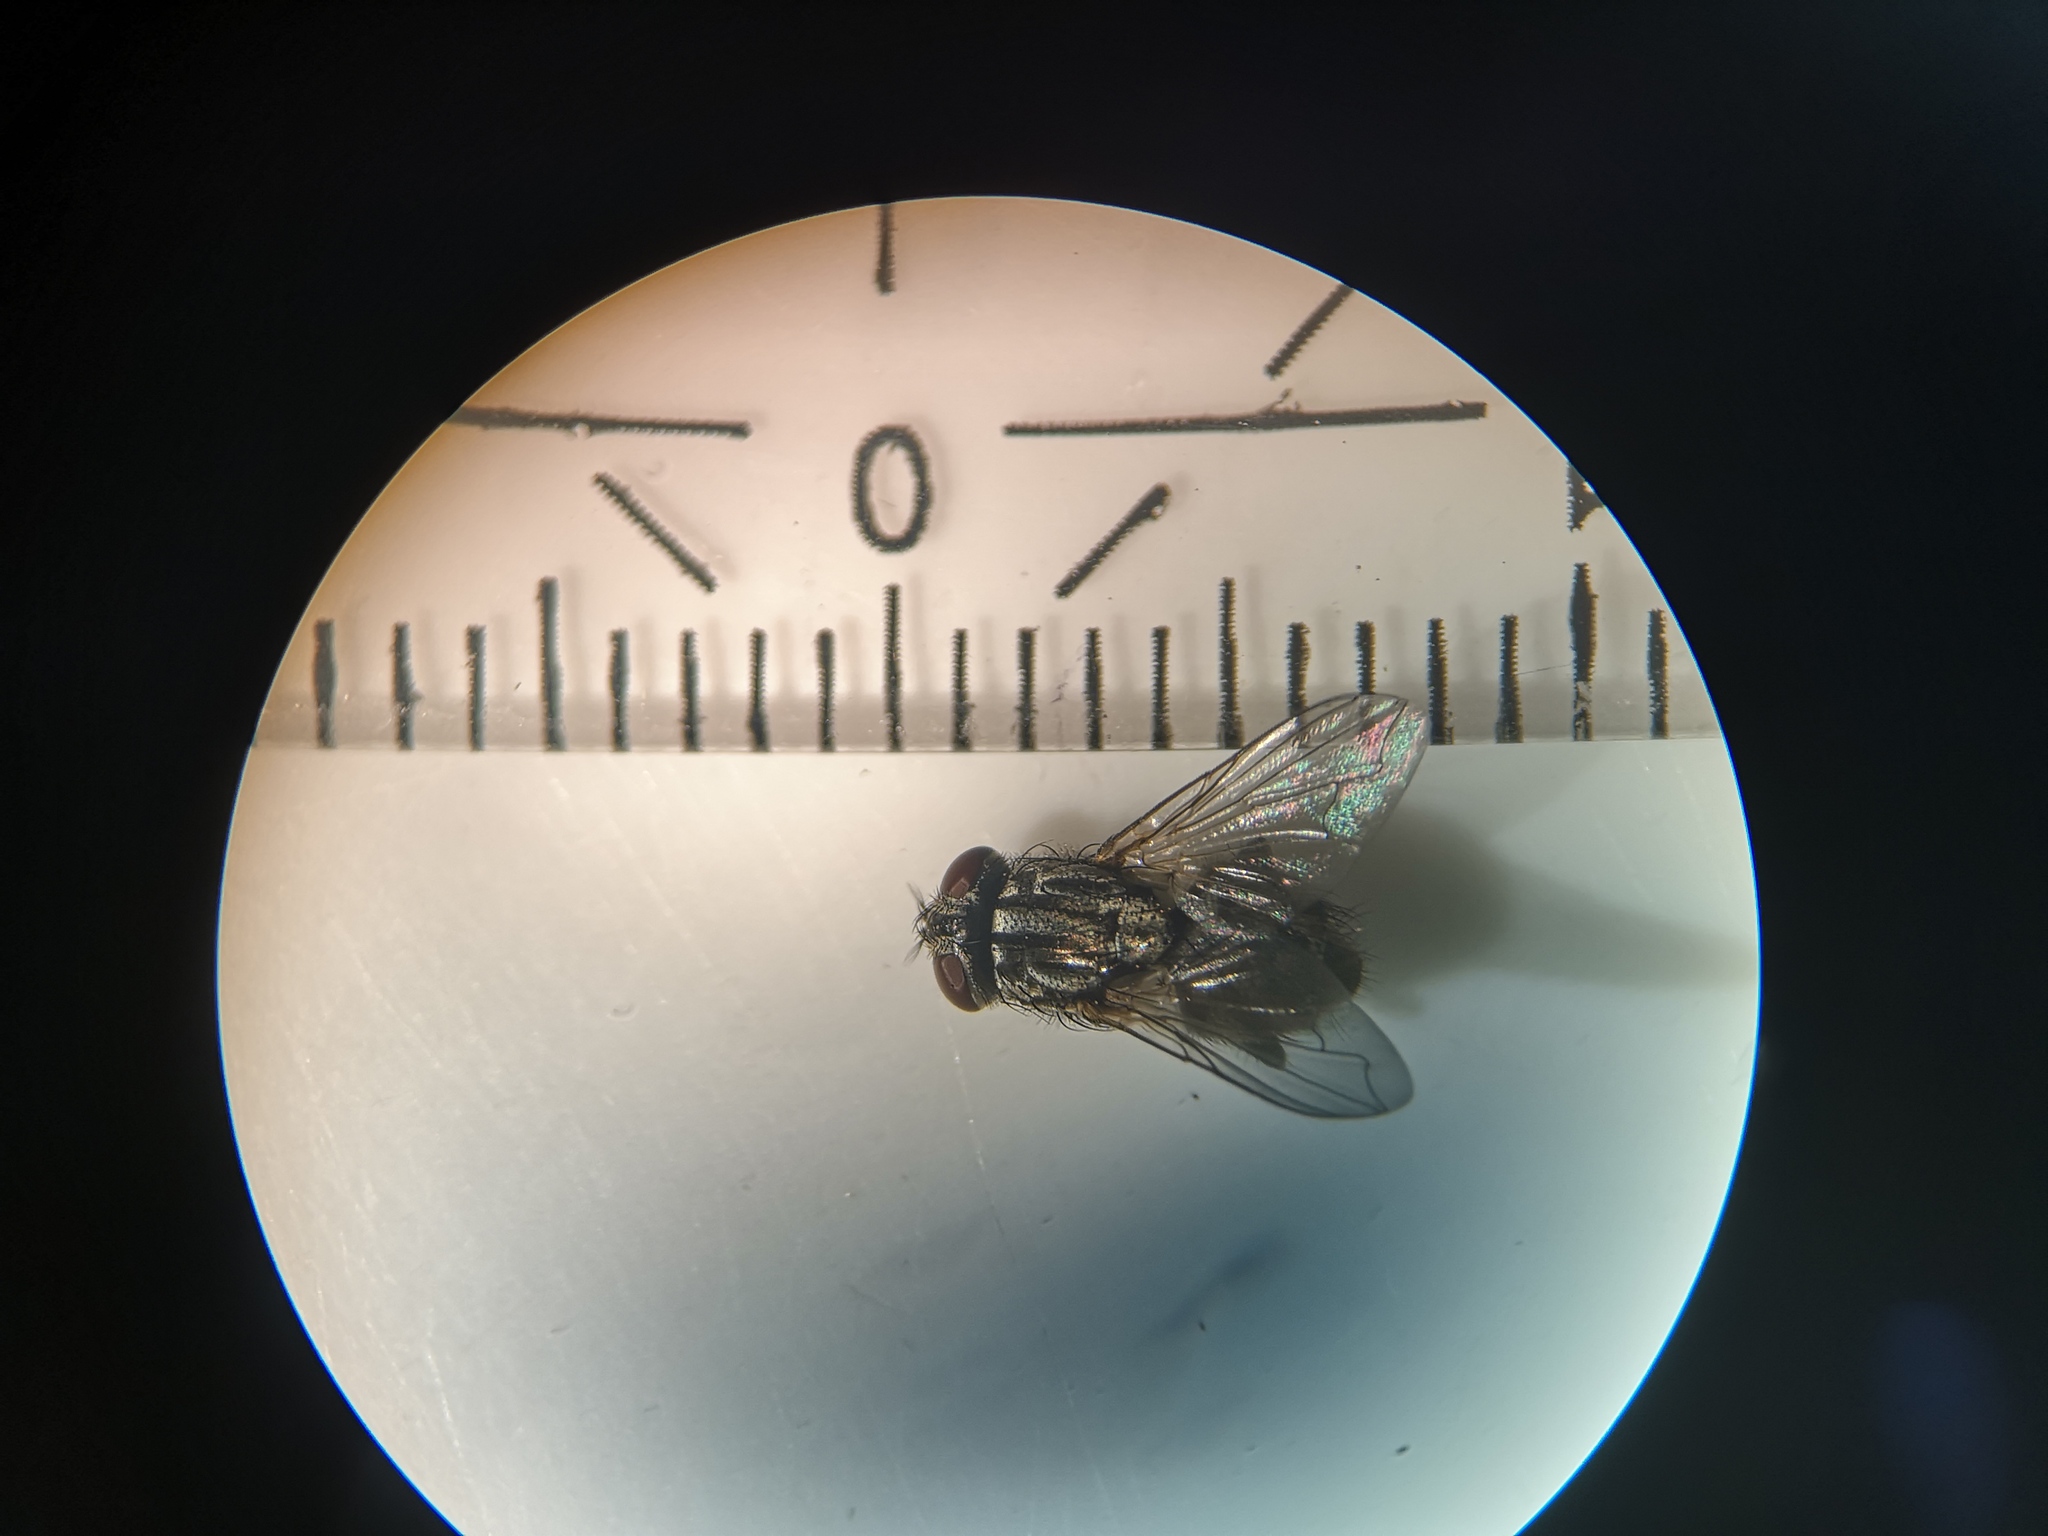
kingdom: Animalia
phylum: Arthropoda
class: Insecta
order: Diptera
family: Muscidae
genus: Musca
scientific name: Musca autumnalis
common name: Face fly
